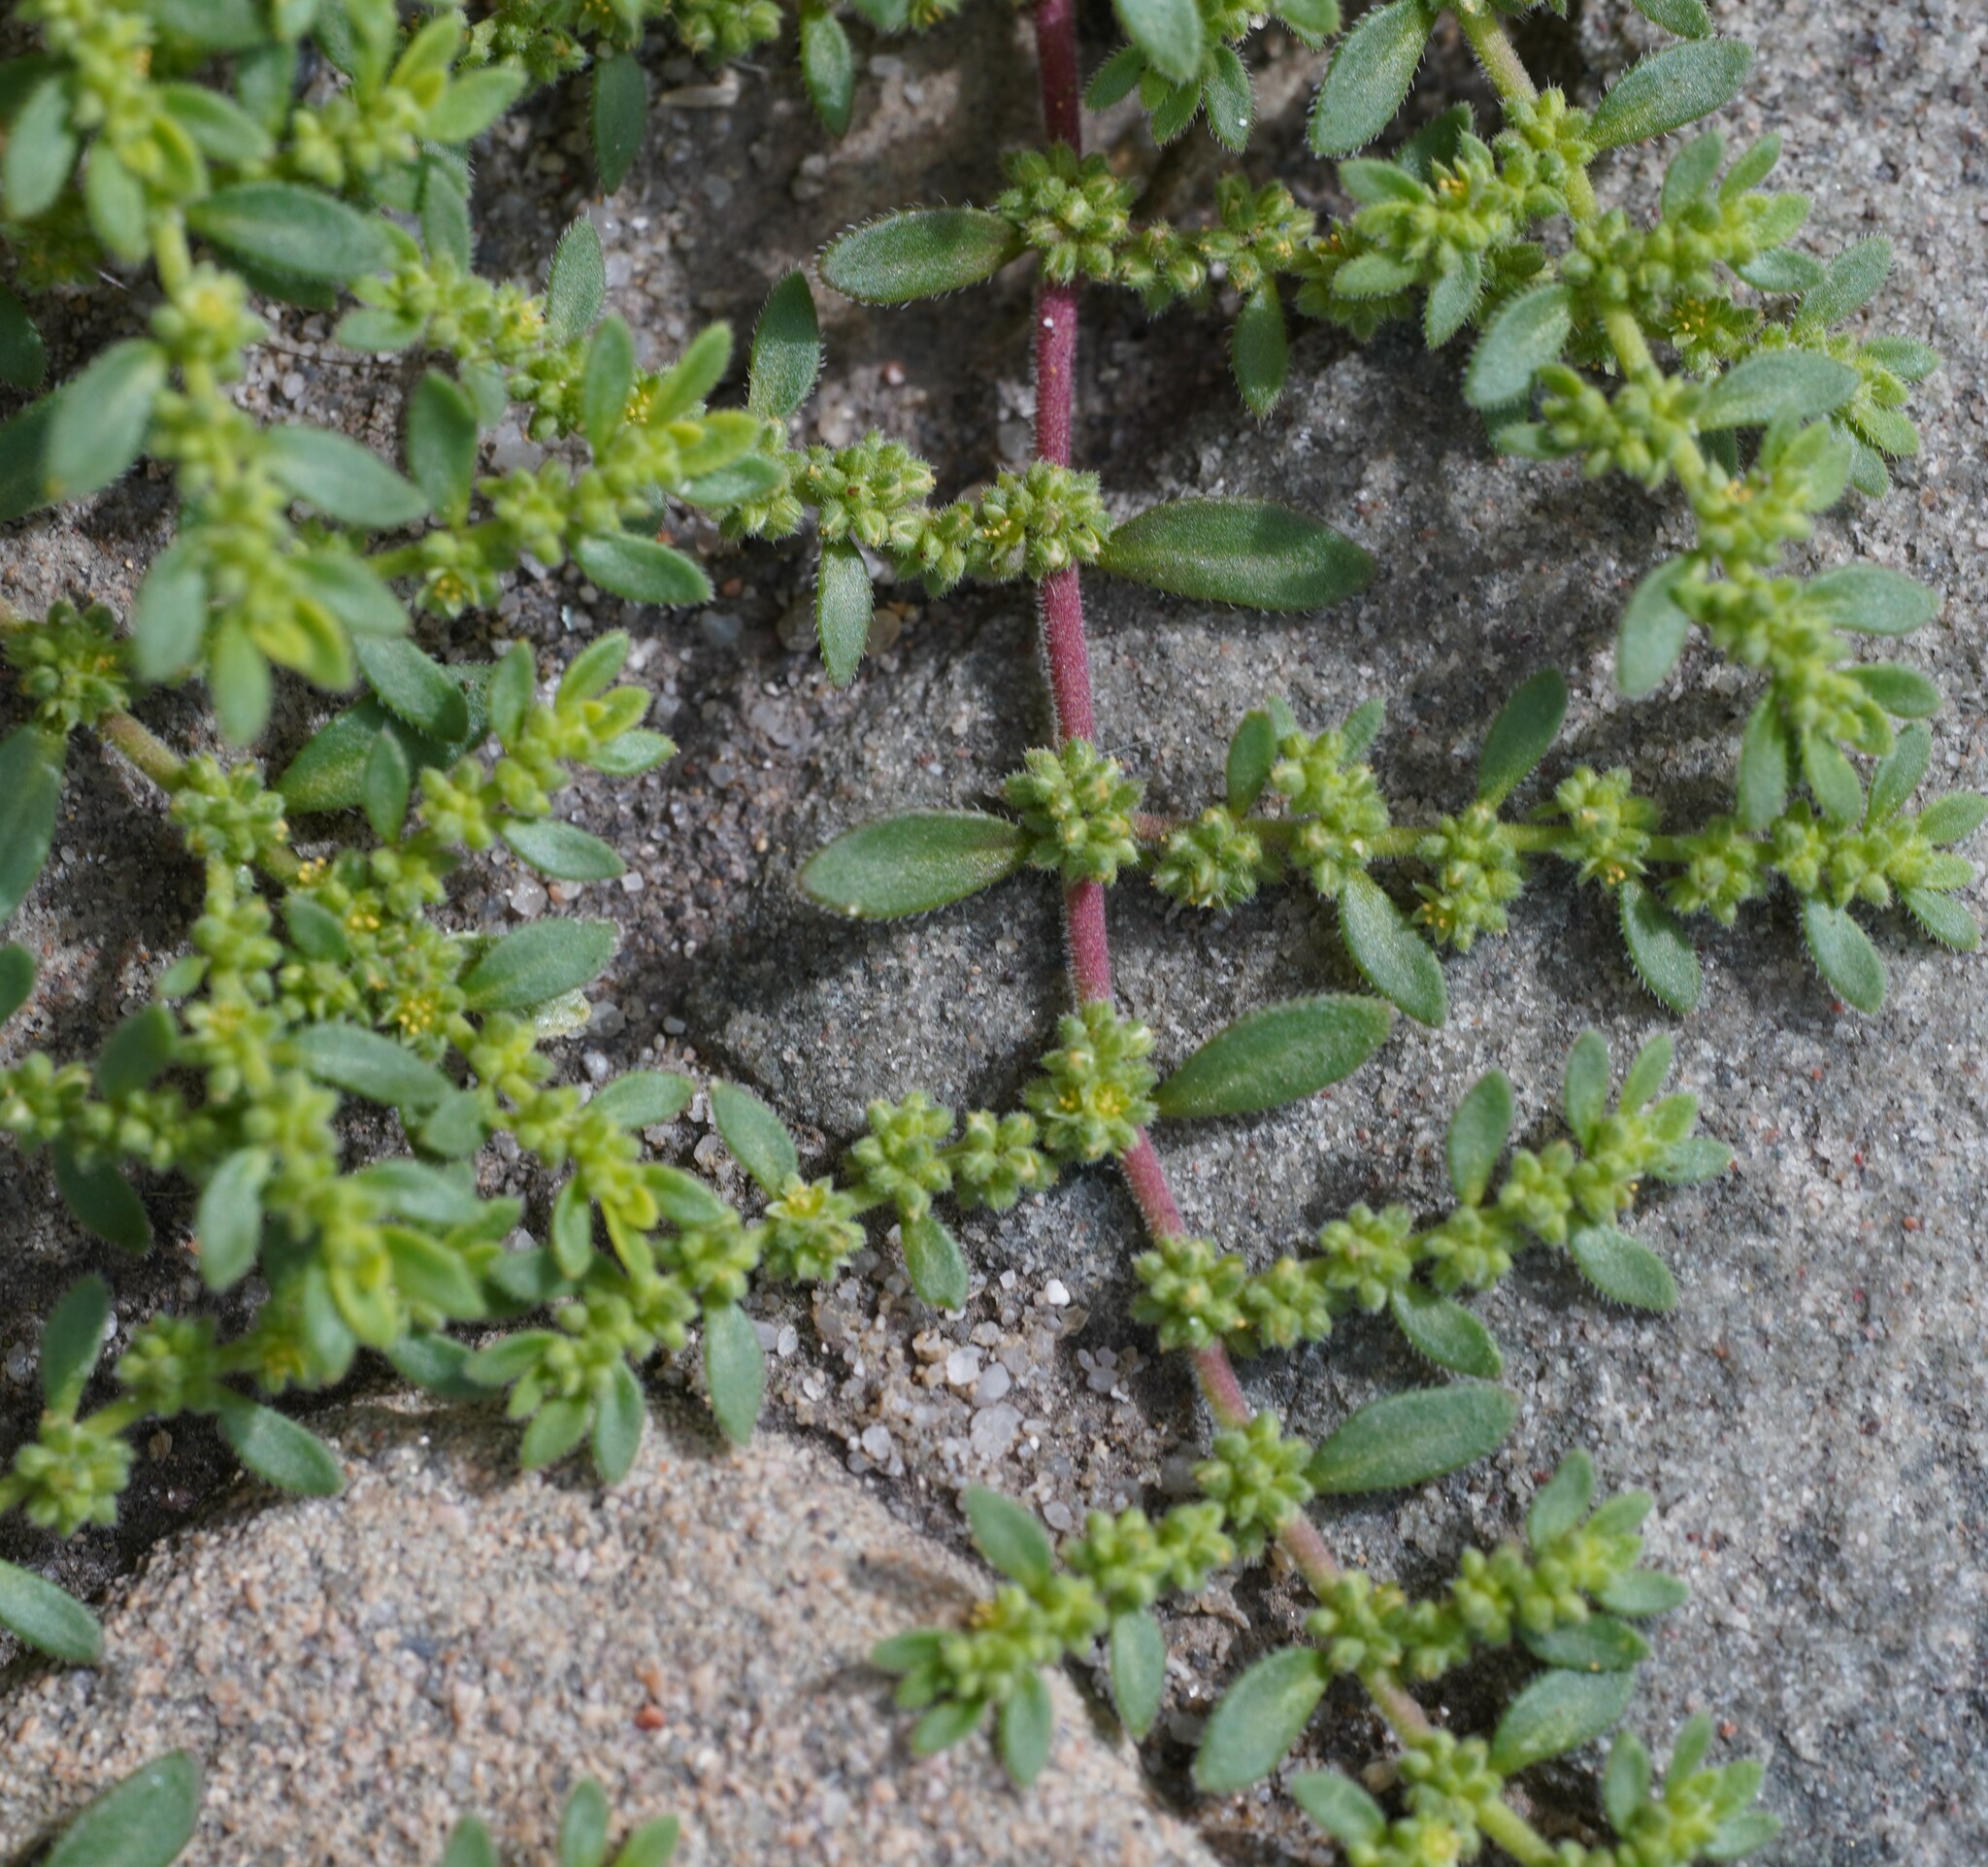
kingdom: Plantae
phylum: Tracheophyta
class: Magnoliopsida
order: Caryophyllales
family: Caryophyllaceae
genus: Herniaria
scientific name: Herniaria hirsuta
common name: Hairy rupturewort
